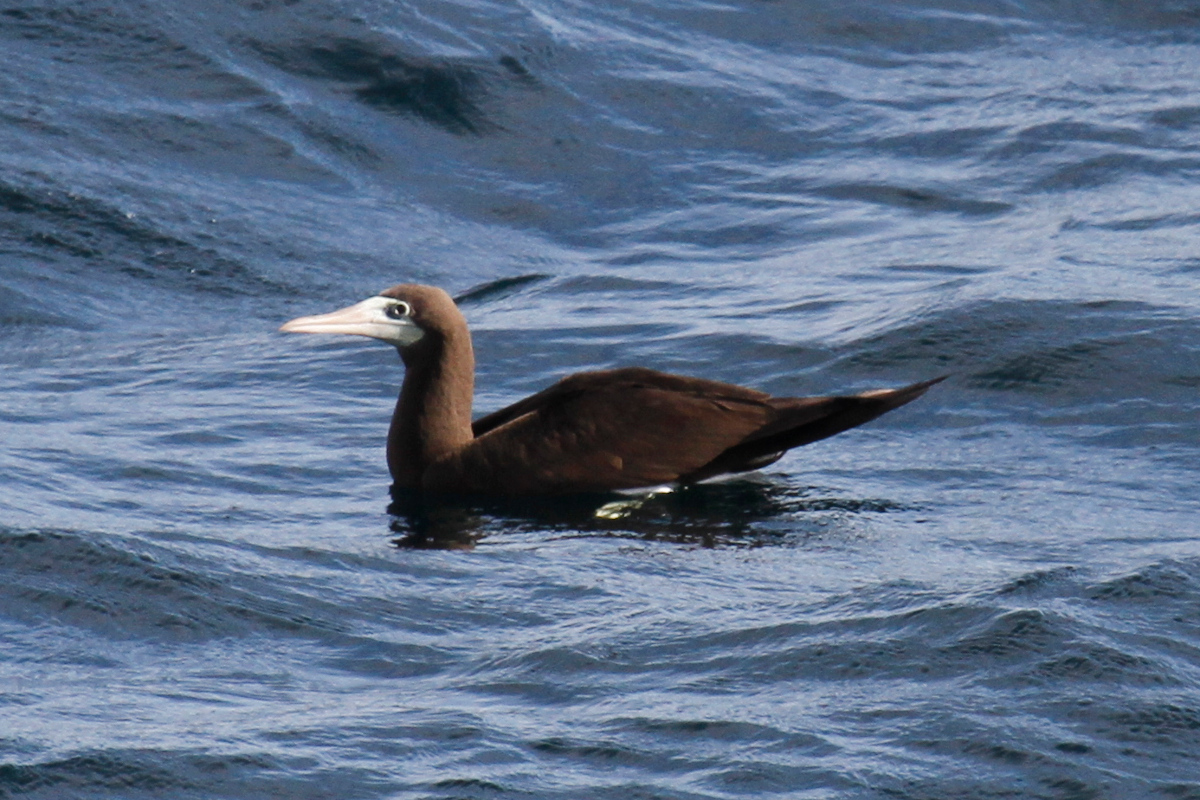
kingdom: Animalia
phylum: Chordata
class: Aves
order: Suliformes
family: Sulidae
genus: Sula
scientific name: Sula leucogaster
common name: Brown booby
